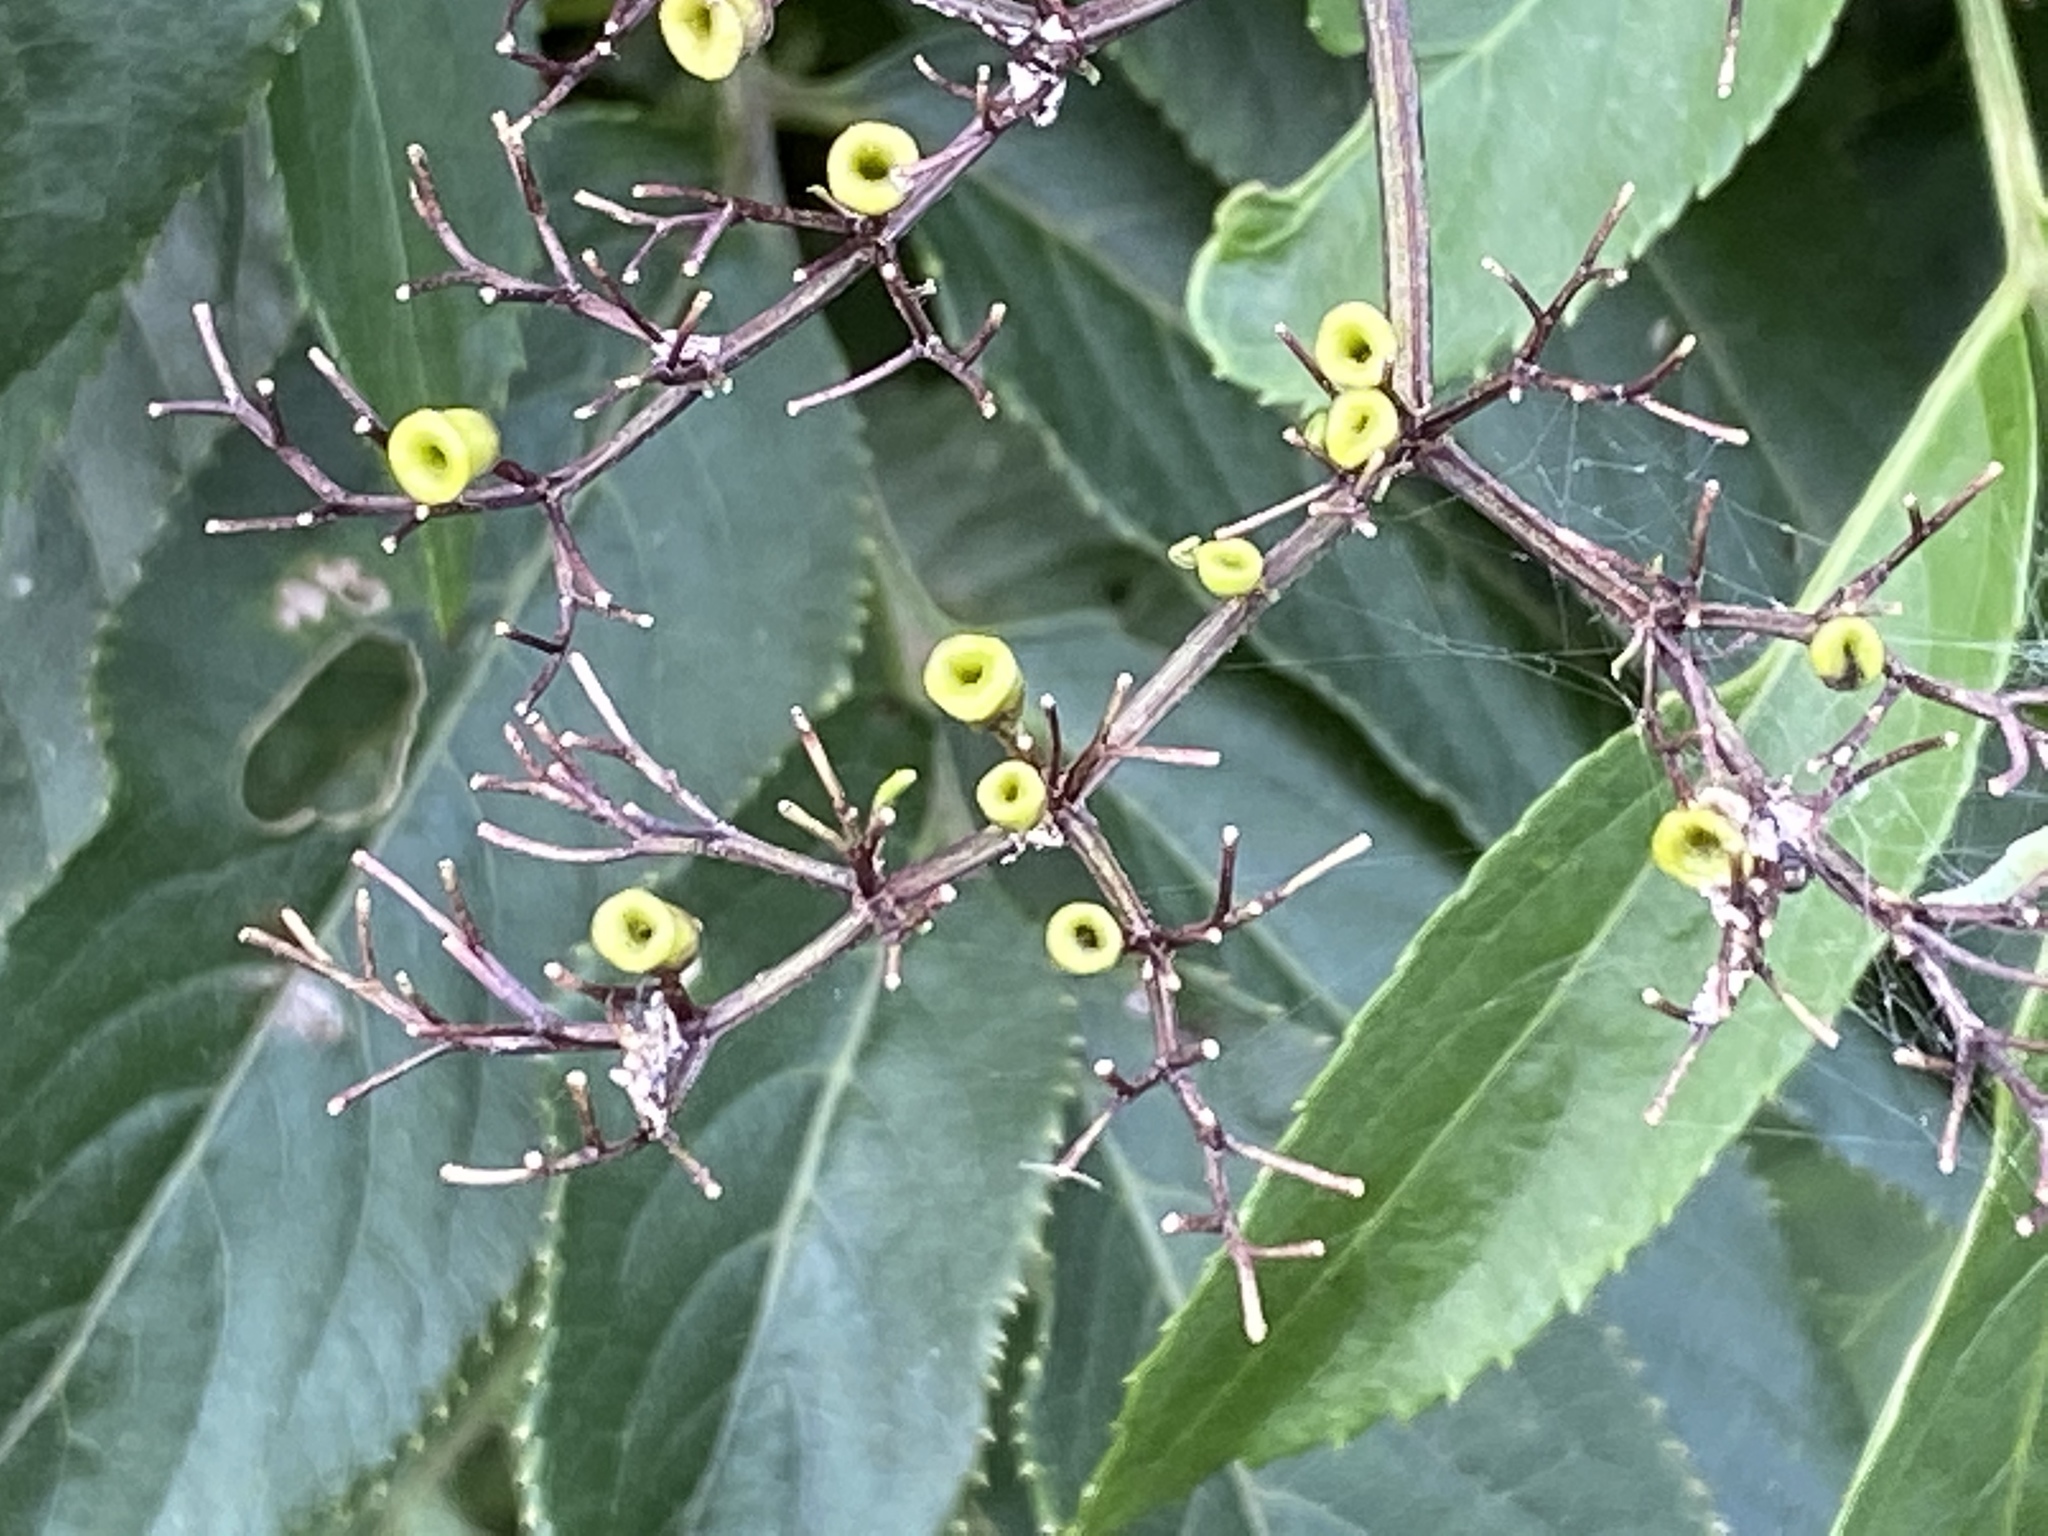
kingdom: Plantae
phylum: Tracheophyta
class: Magnoliopsida
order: Dipsacales
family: Viburnaceae
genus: Sambucus
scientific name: Sambucus javanica
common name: Chinese elder
